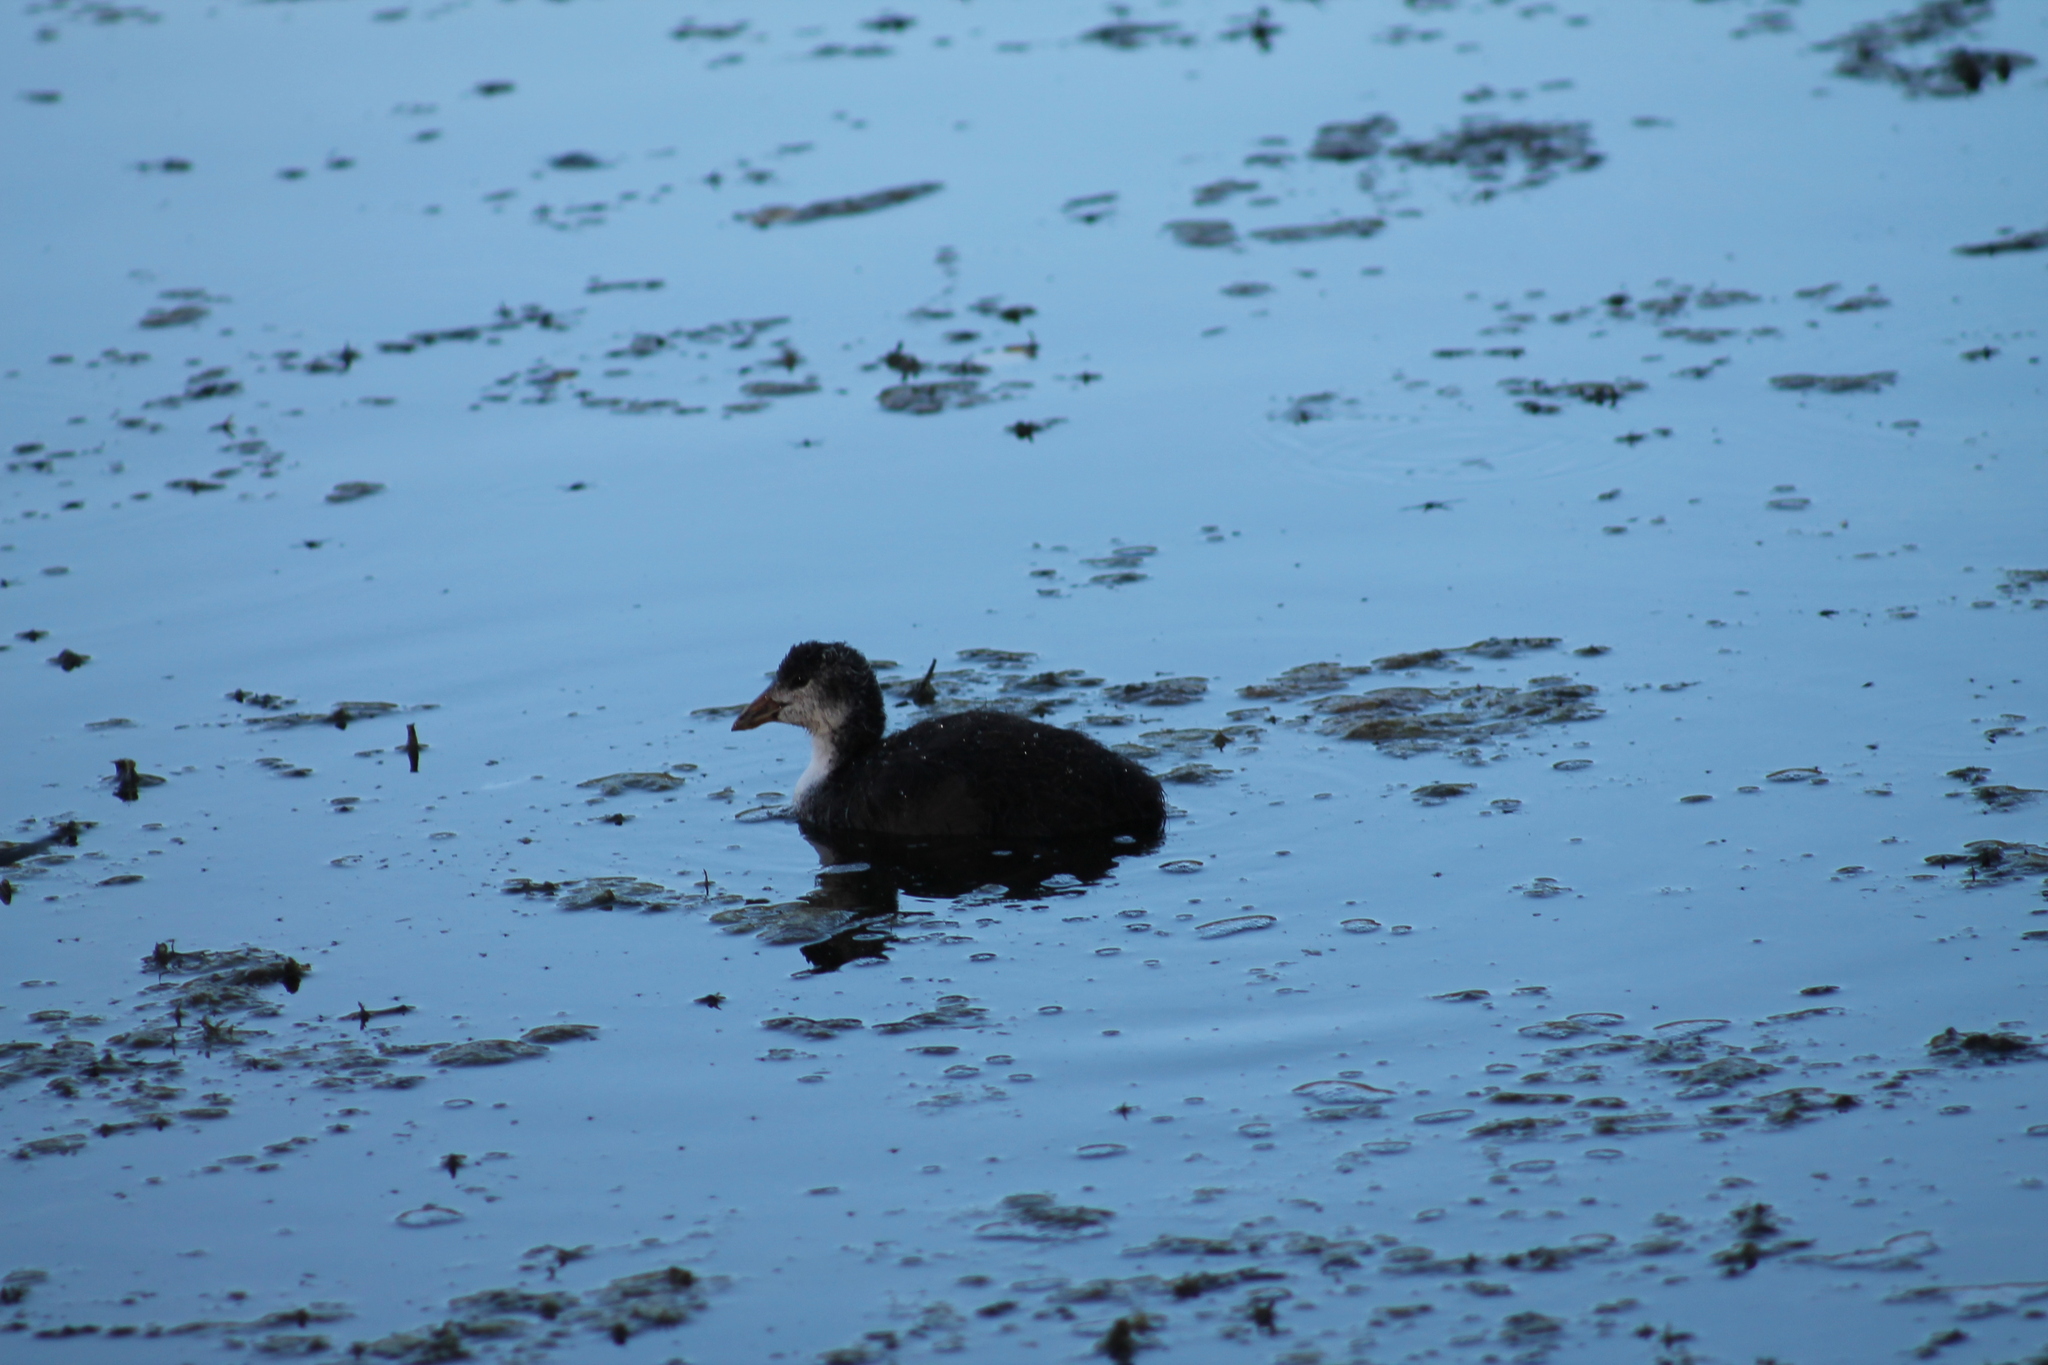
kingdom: Animalia
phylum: Chordata
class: Aves
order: Gruiformes
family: Rallidae
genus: Fulica
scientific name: Fulica atra
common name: Eurasian coot
